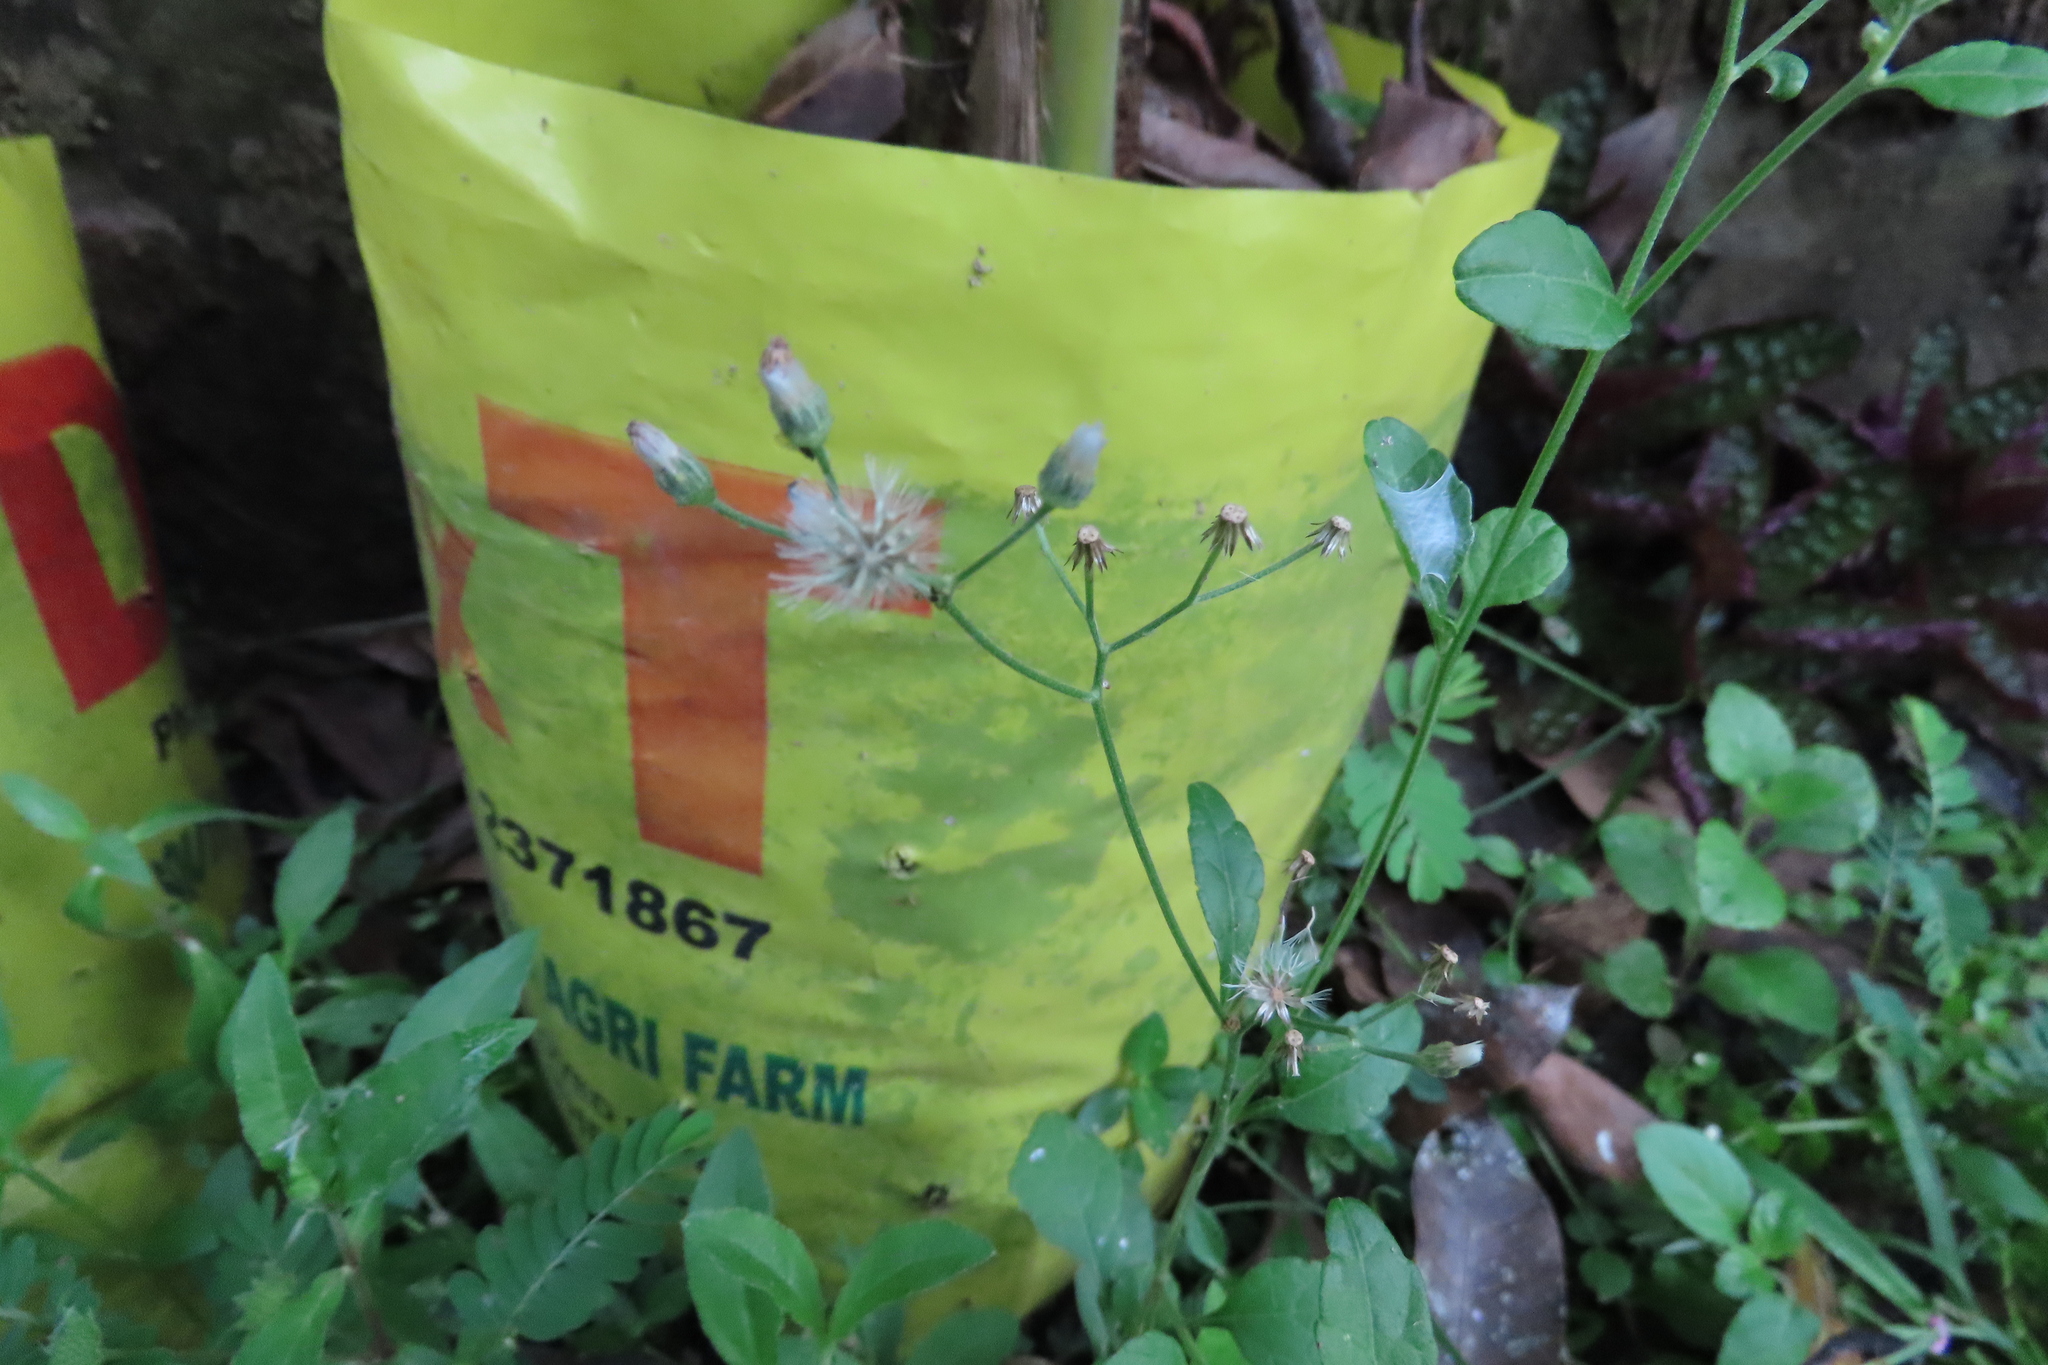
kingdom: Plantae
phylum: Tracheophyta
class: Magnoliopsida
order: Asterales
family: Asteraceae
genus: Cyanthillium
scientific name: Cyanthillium cinereum
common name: Little ironweed
